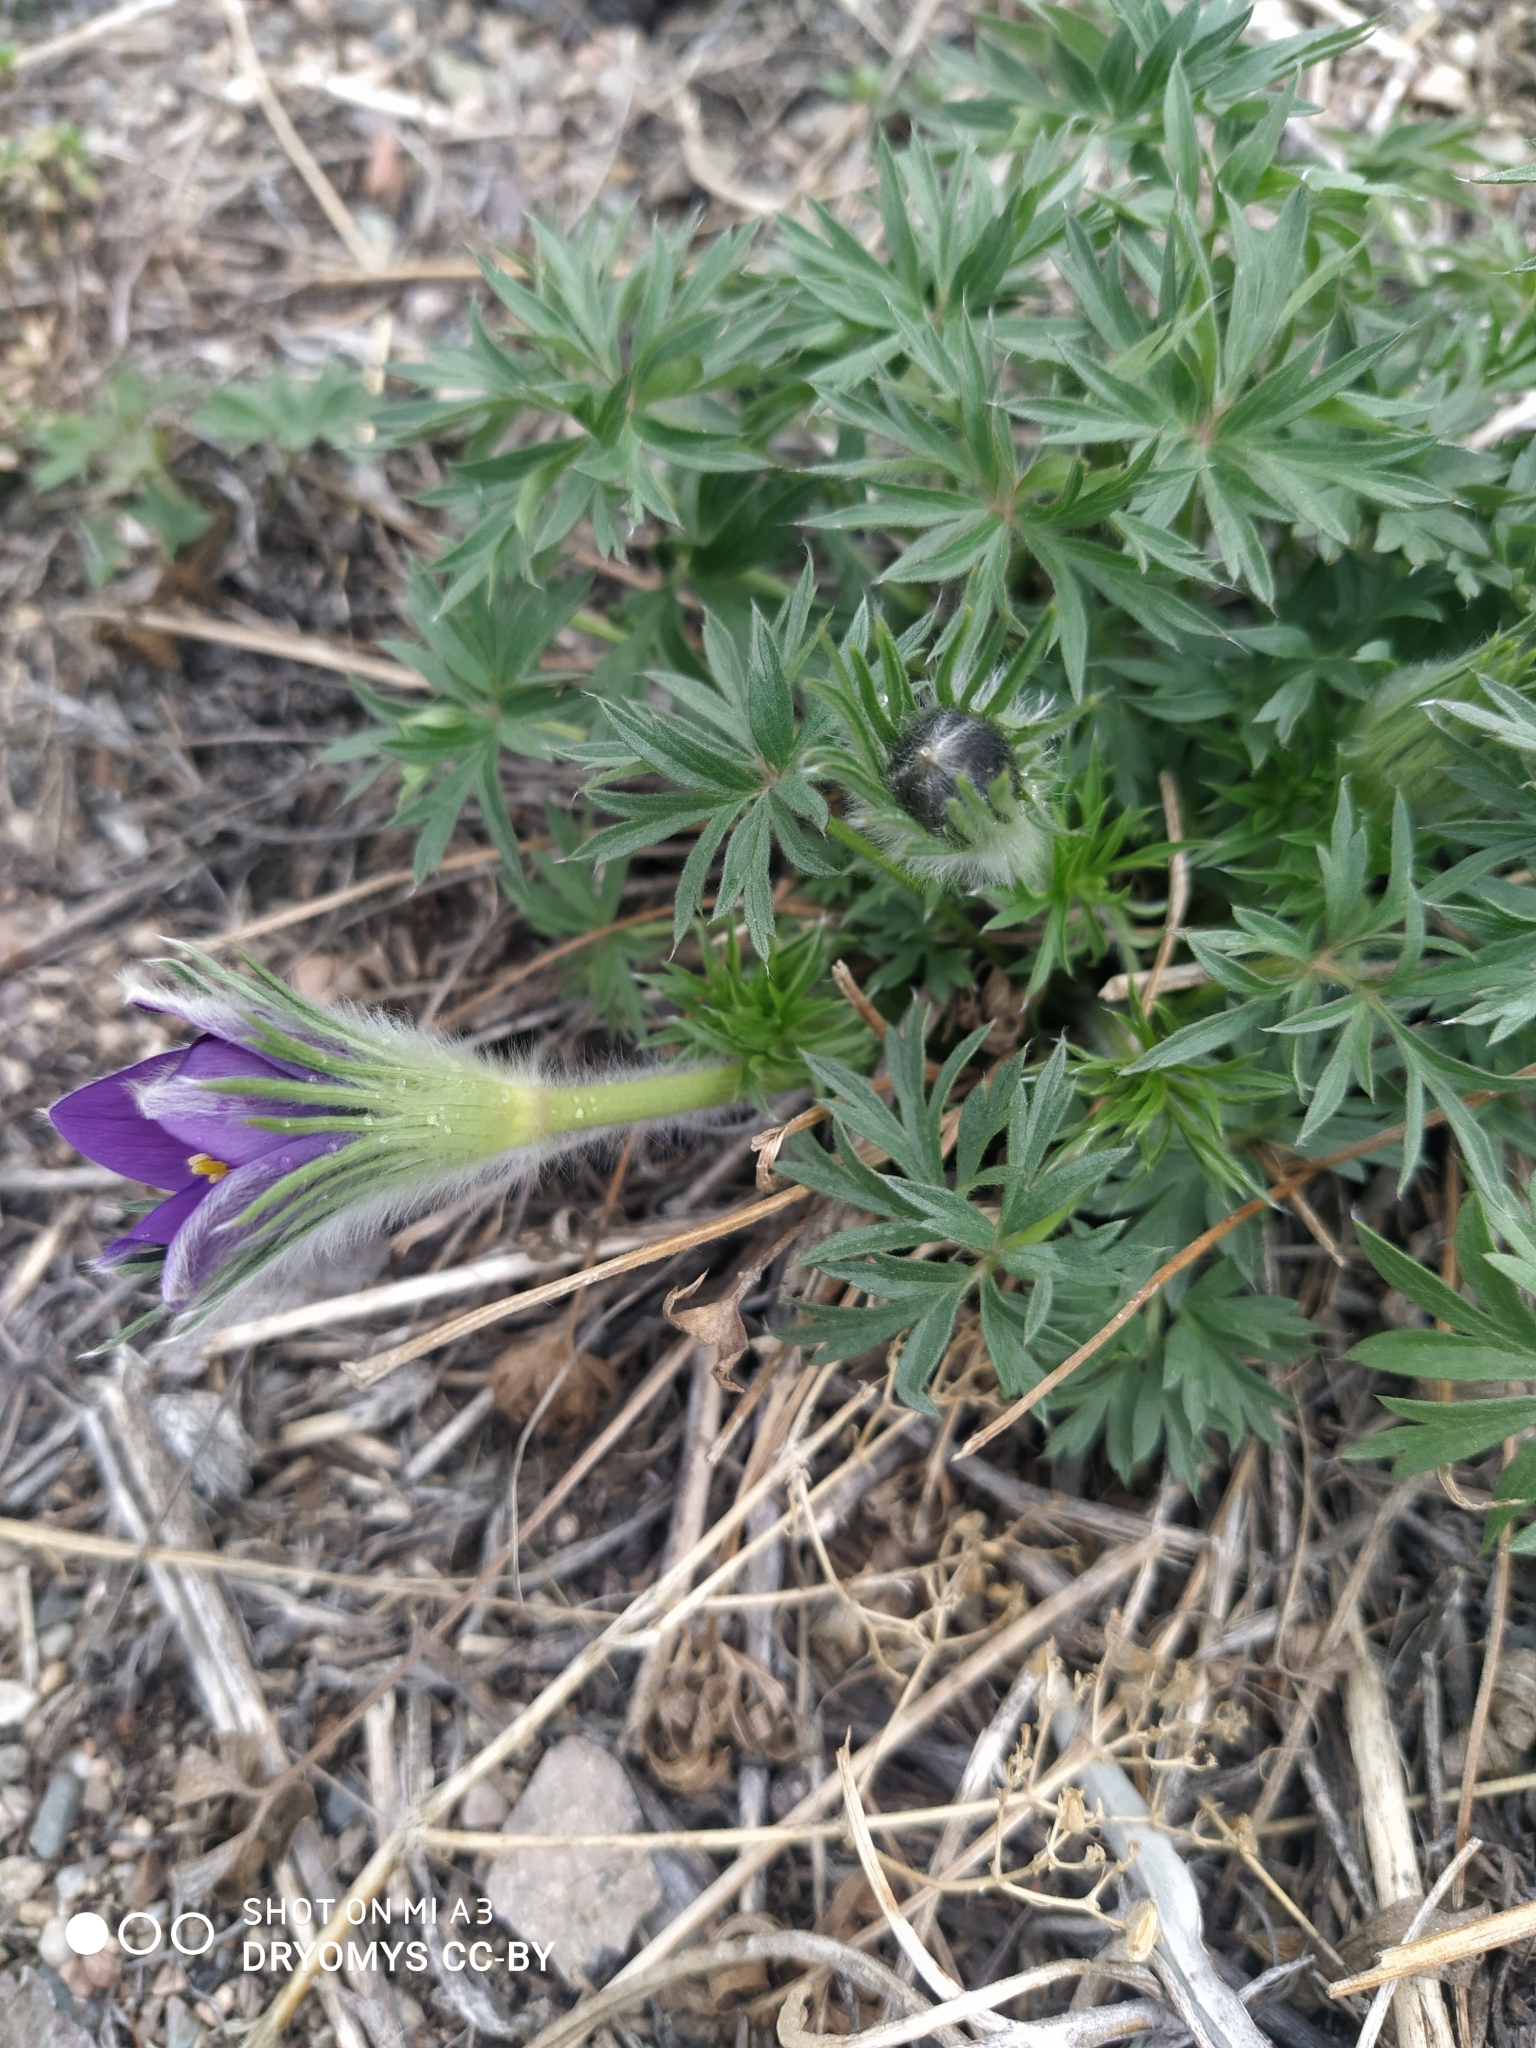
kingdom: Plantae
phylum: Tracheophyta
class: Magnoliopsida
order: Ranunculales
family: Ranunculaceae
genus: Pulsatilla
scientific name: Pulsatilla patens
